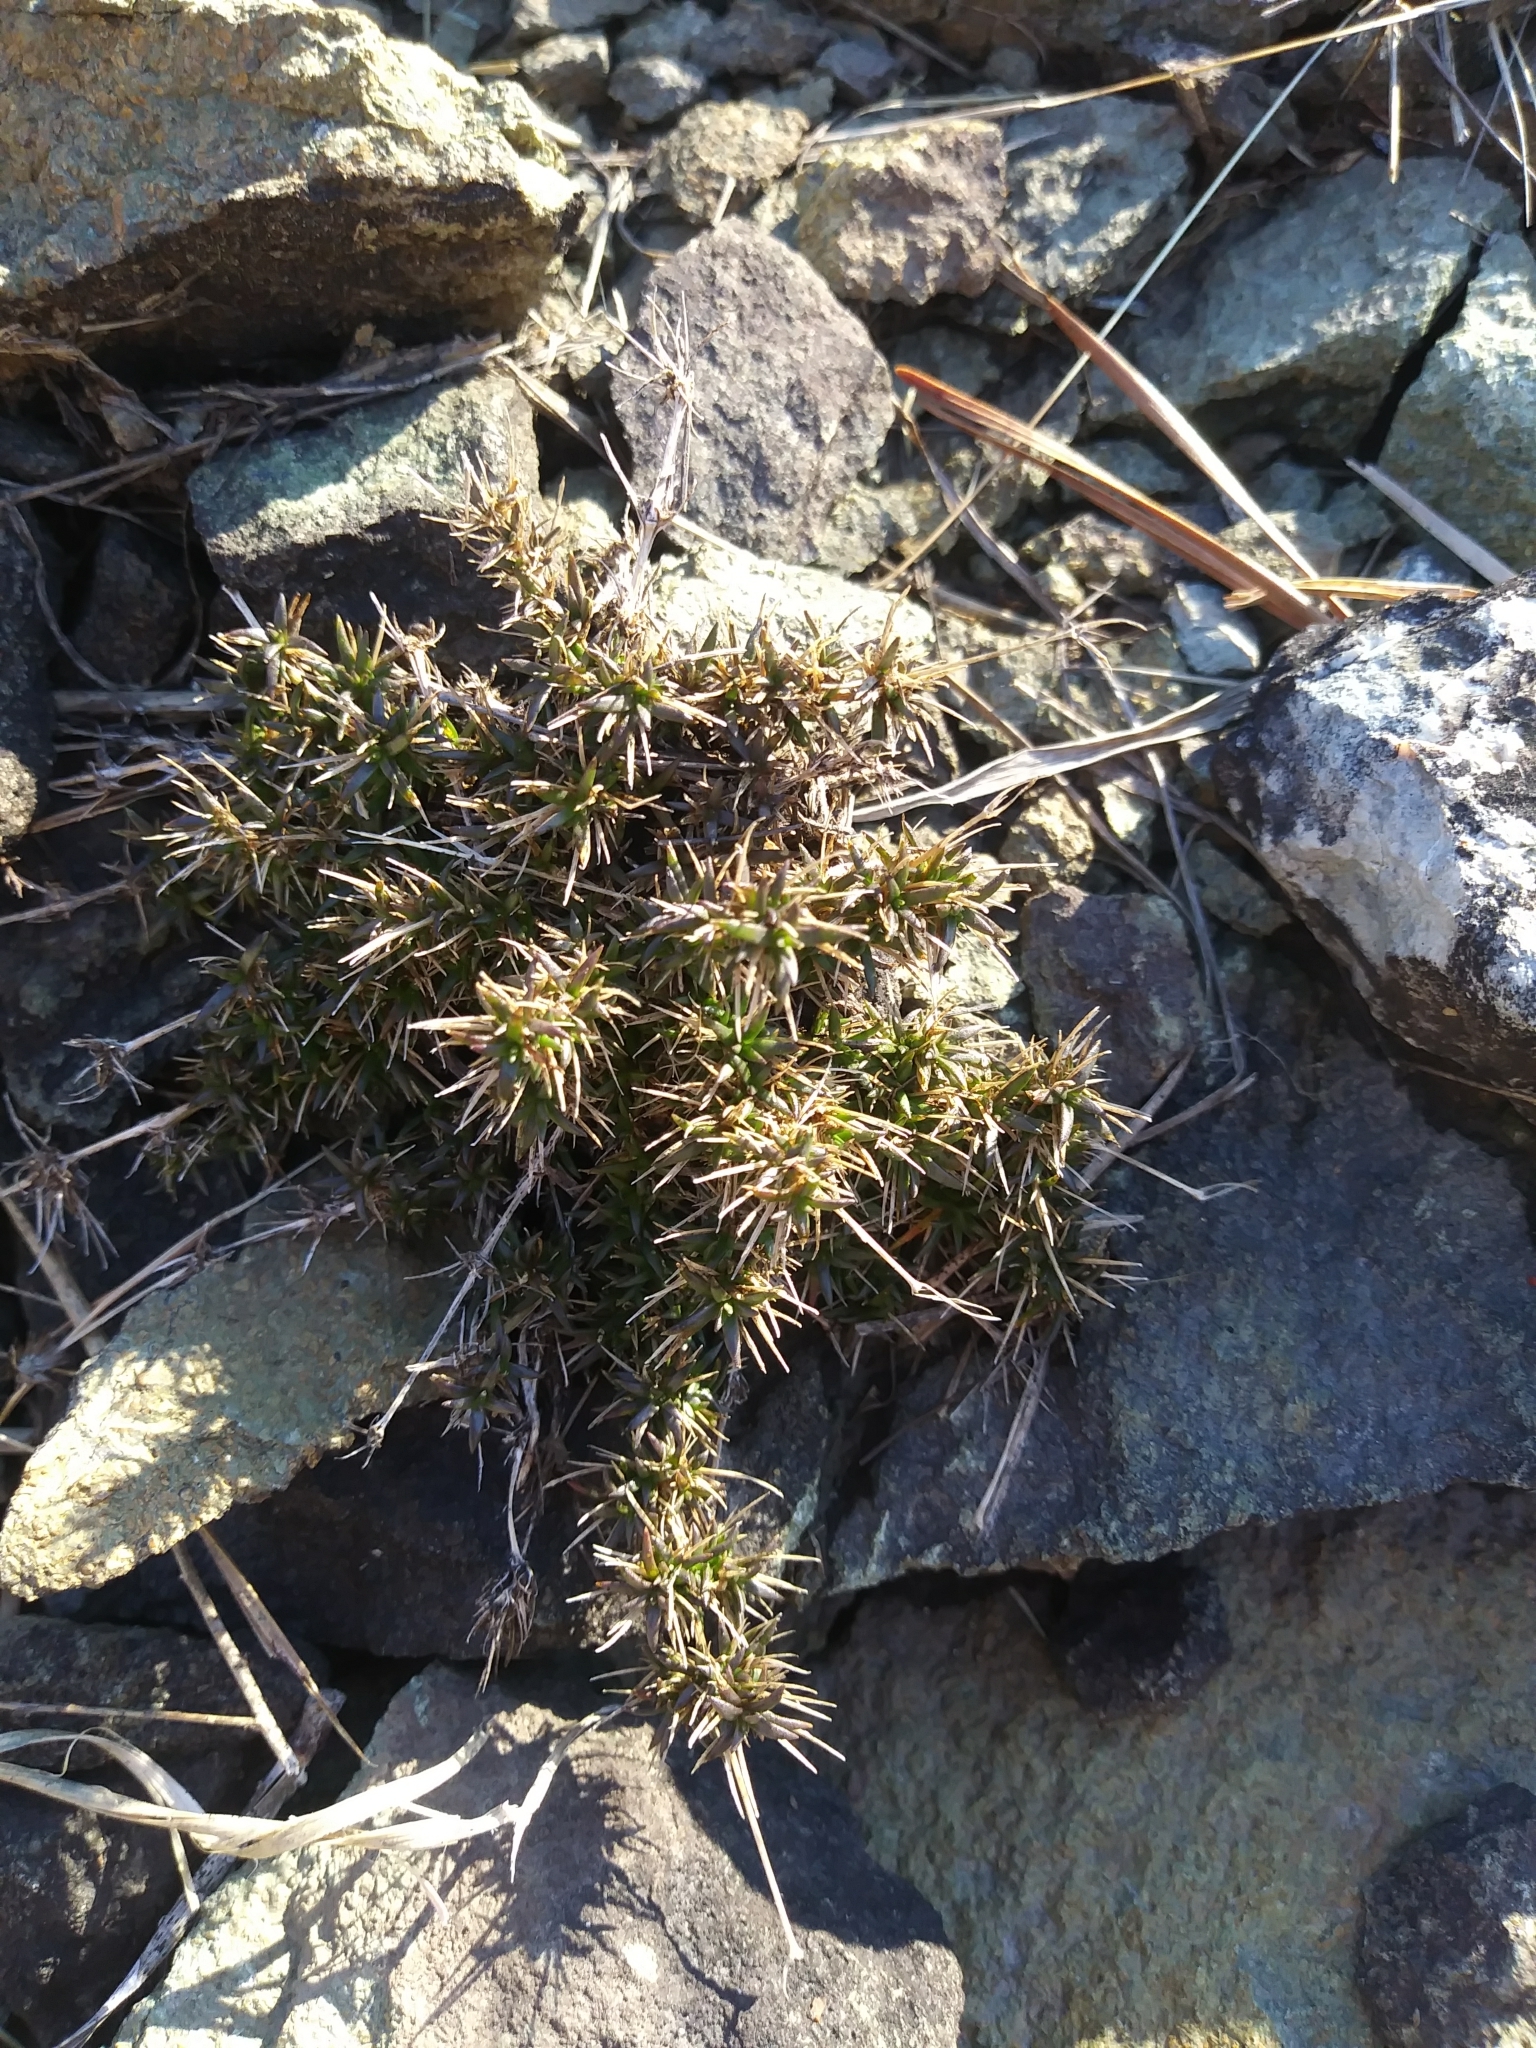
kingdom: Plantae
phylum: Tracheophyta
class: Magnoliopsida
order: Caryophyllales
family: Caryophyllaceae
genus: Sabulina
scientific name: Sabulina michauxii
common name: Michaux's stitchwort
